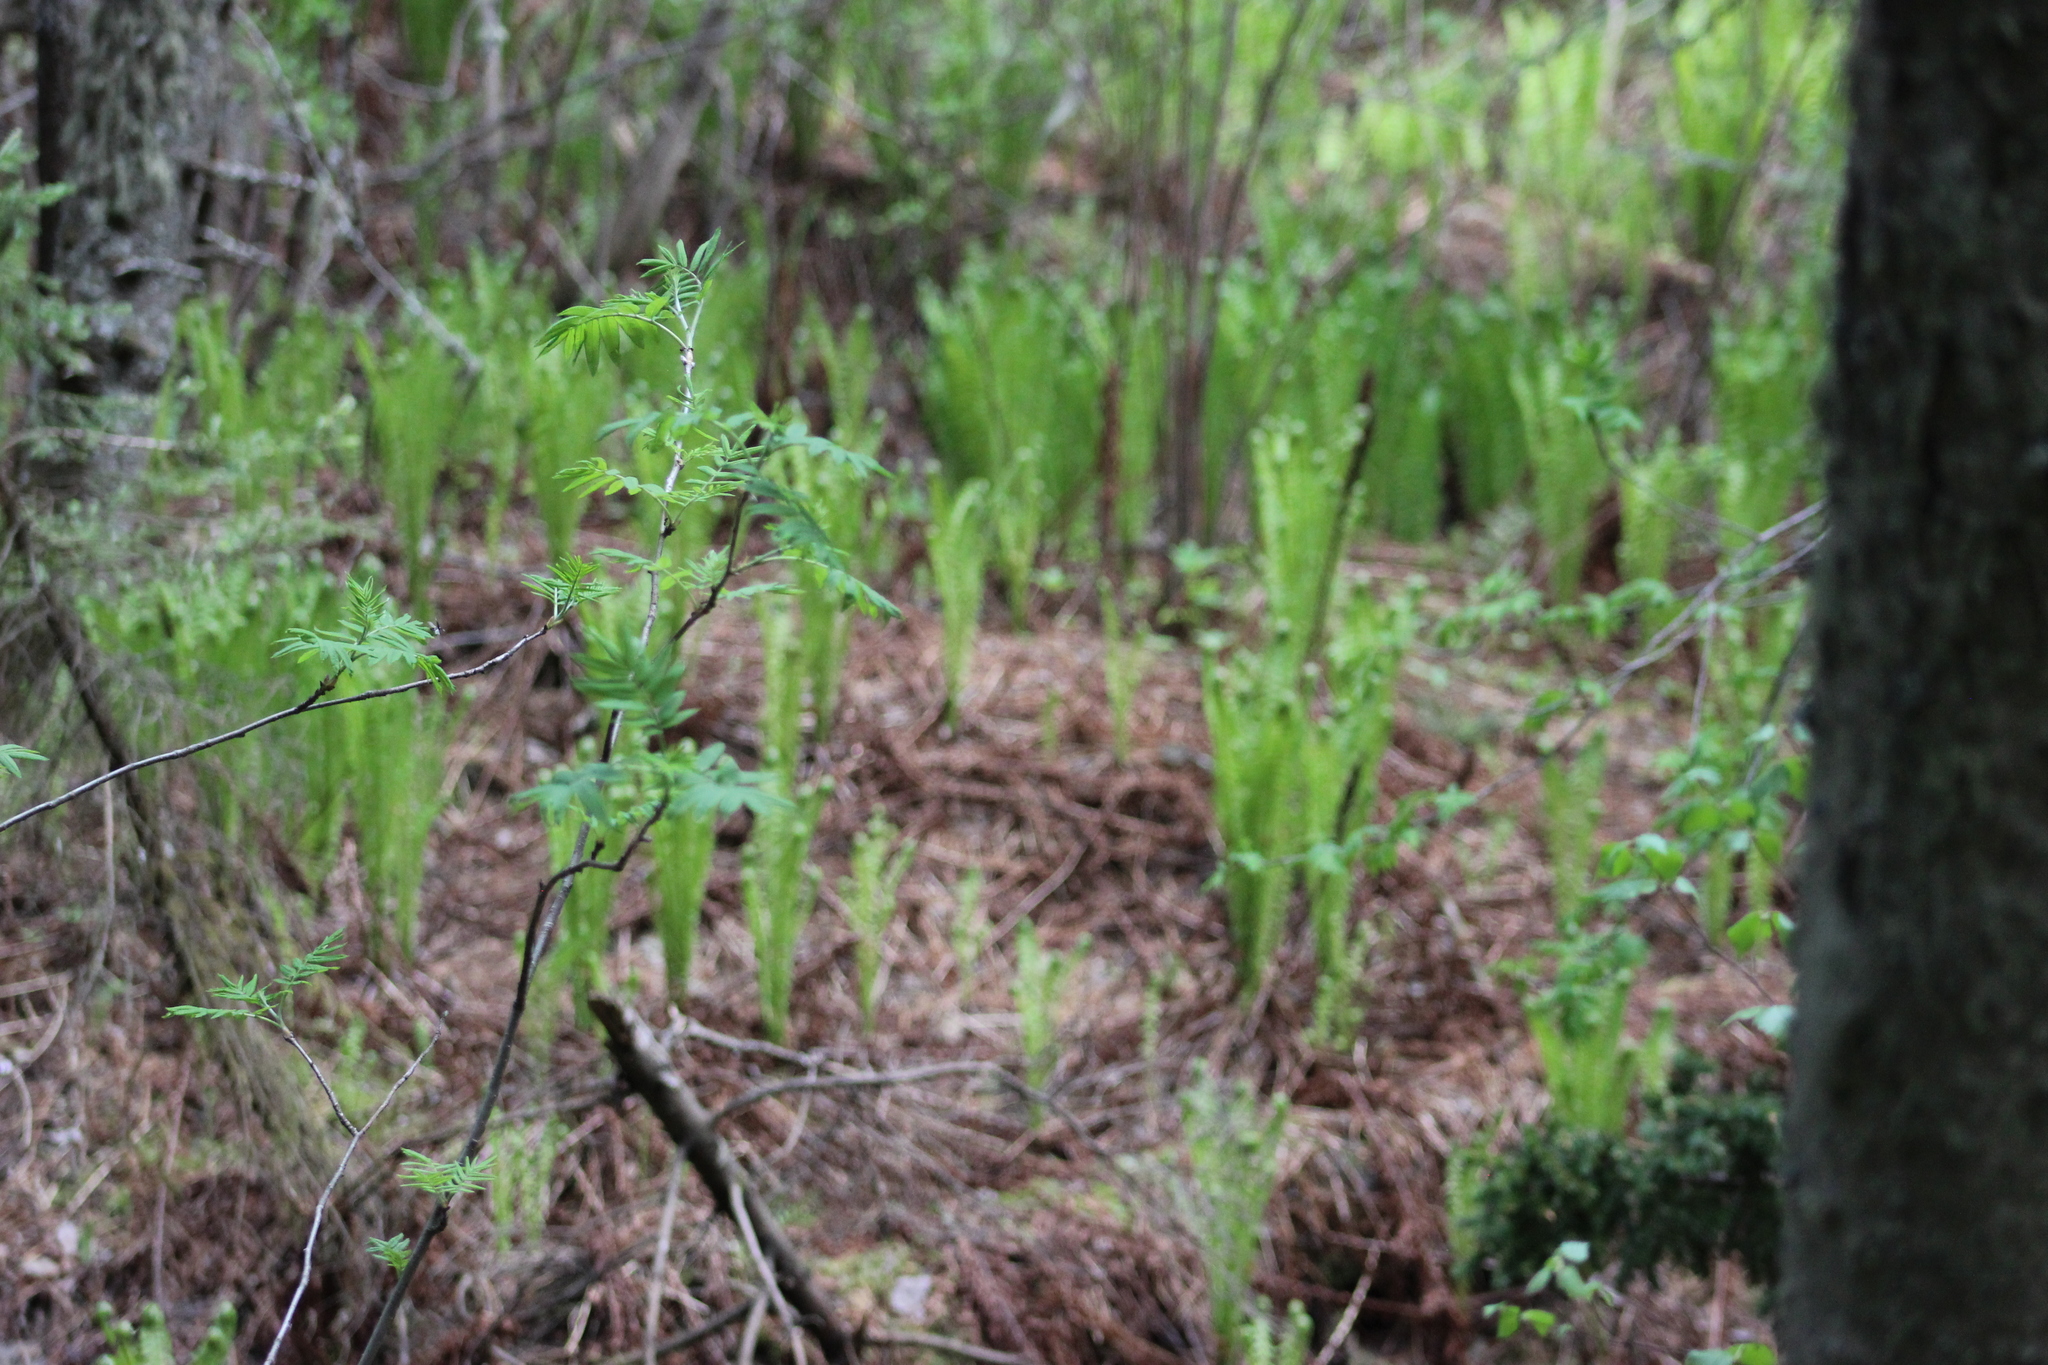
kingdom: Plantae
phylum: Tracheophyta
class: Polypodiopsida
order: Polypodiales
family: Onocleaceae
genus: Matteuccia
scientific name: Matteuccia struthiopteris
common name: Ostrich fern
